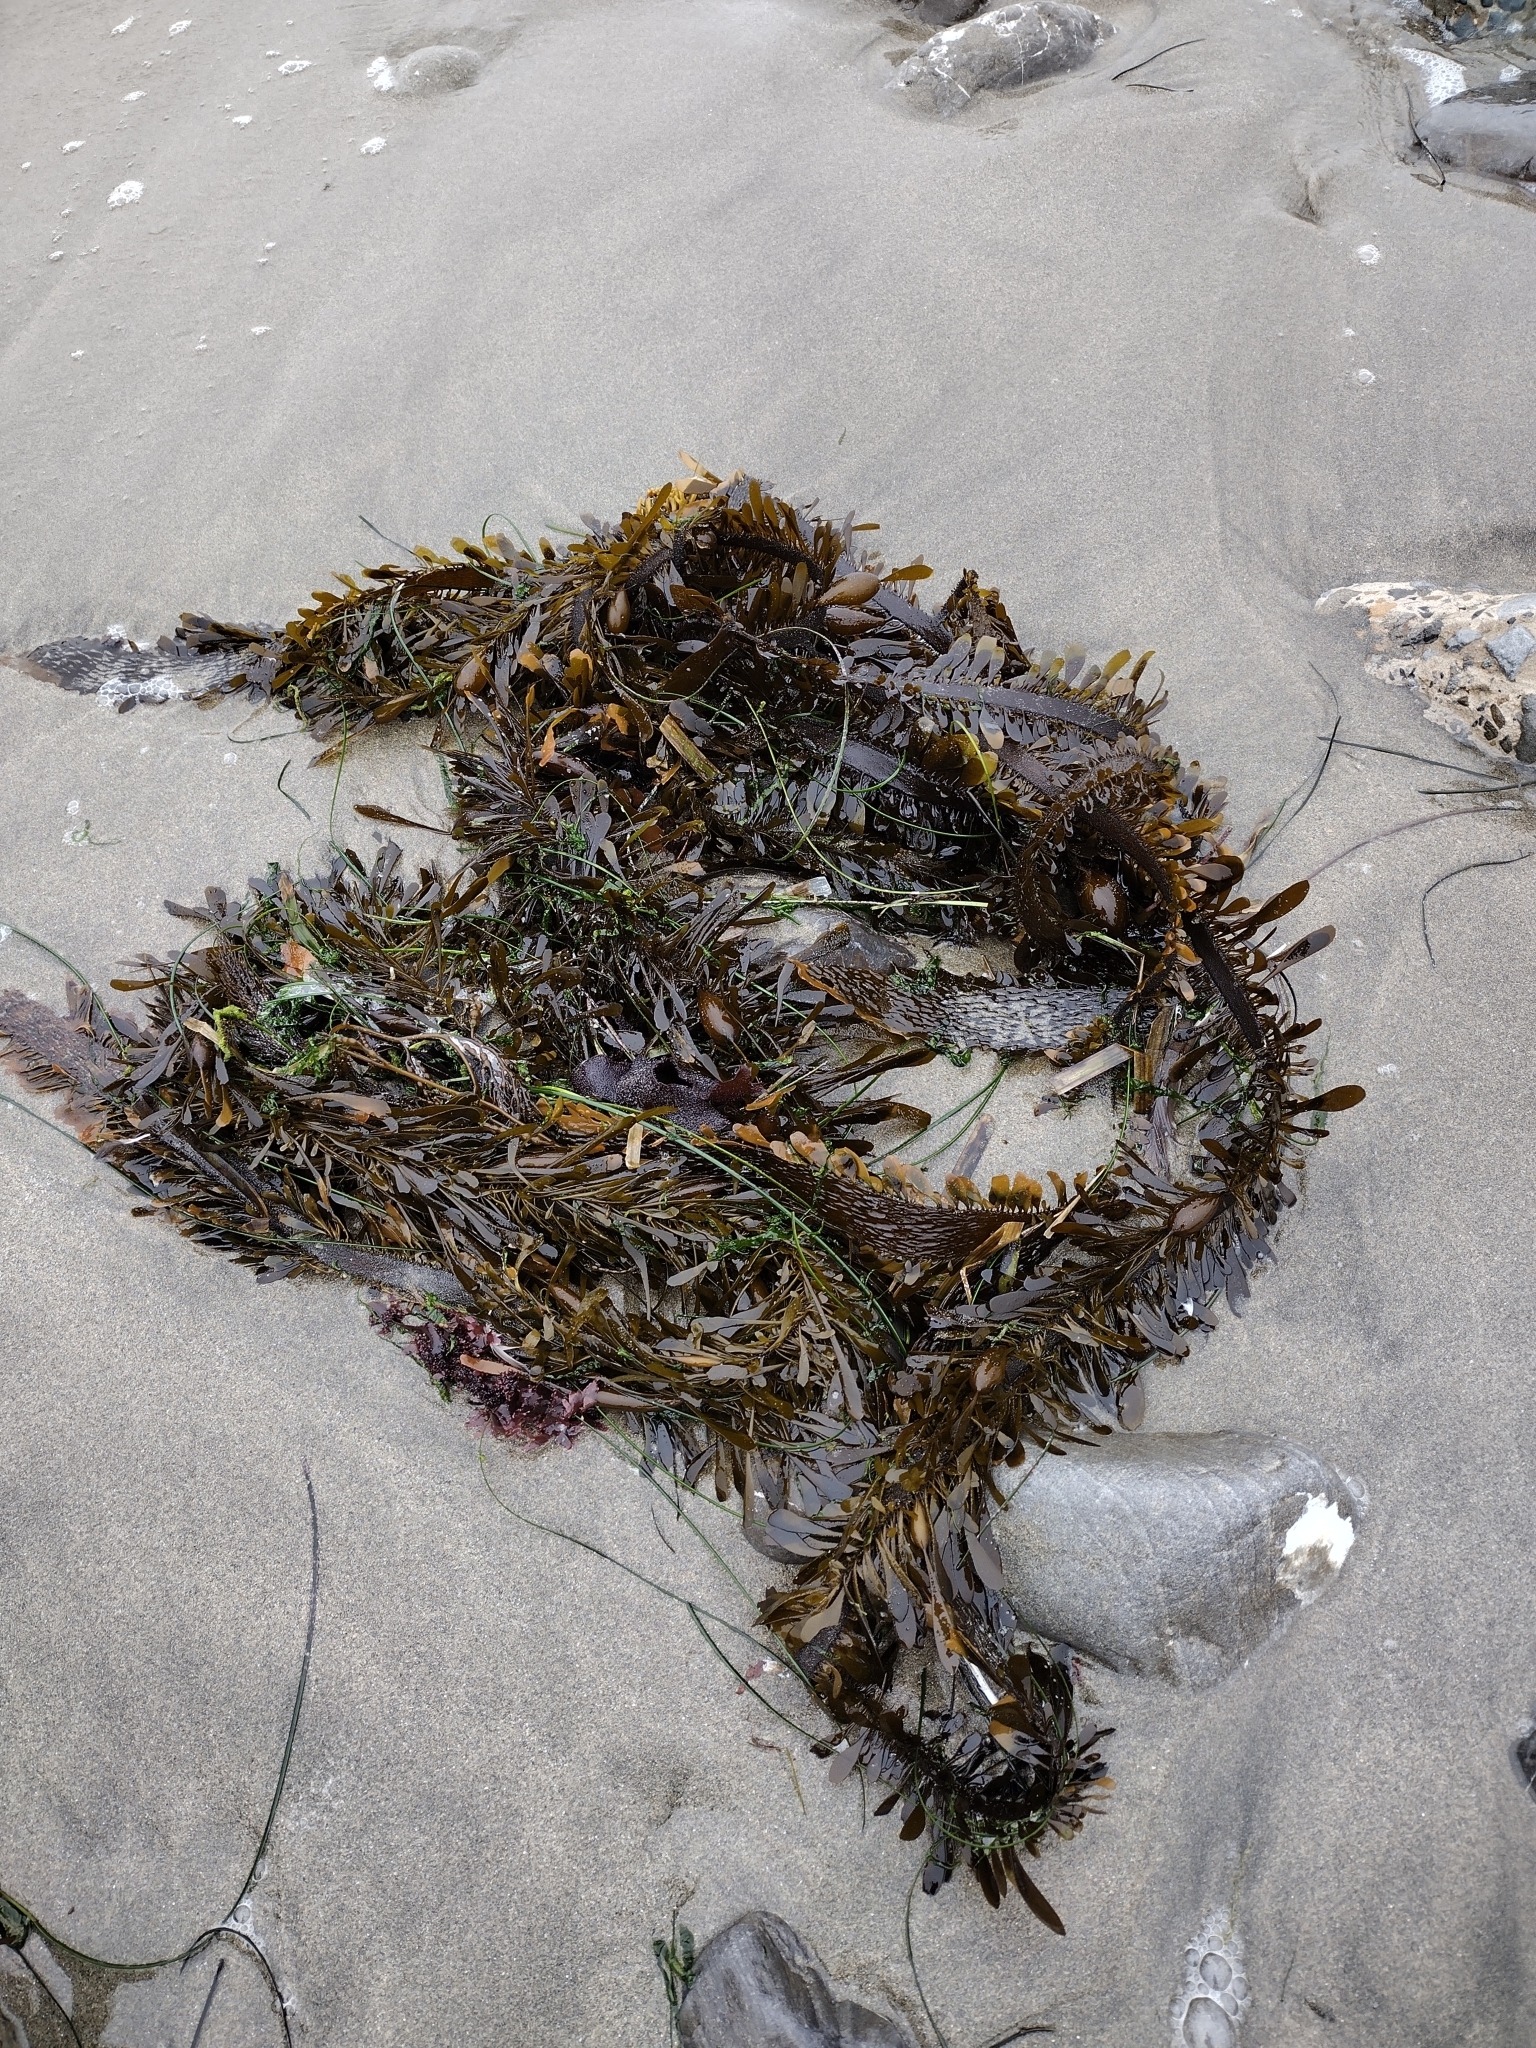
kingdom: Chromista
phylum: Ochrophyta
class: Phaeophyceae
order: Laminariales
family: Lessoniaceae
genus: Egregia
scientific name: Egregia menziesii
